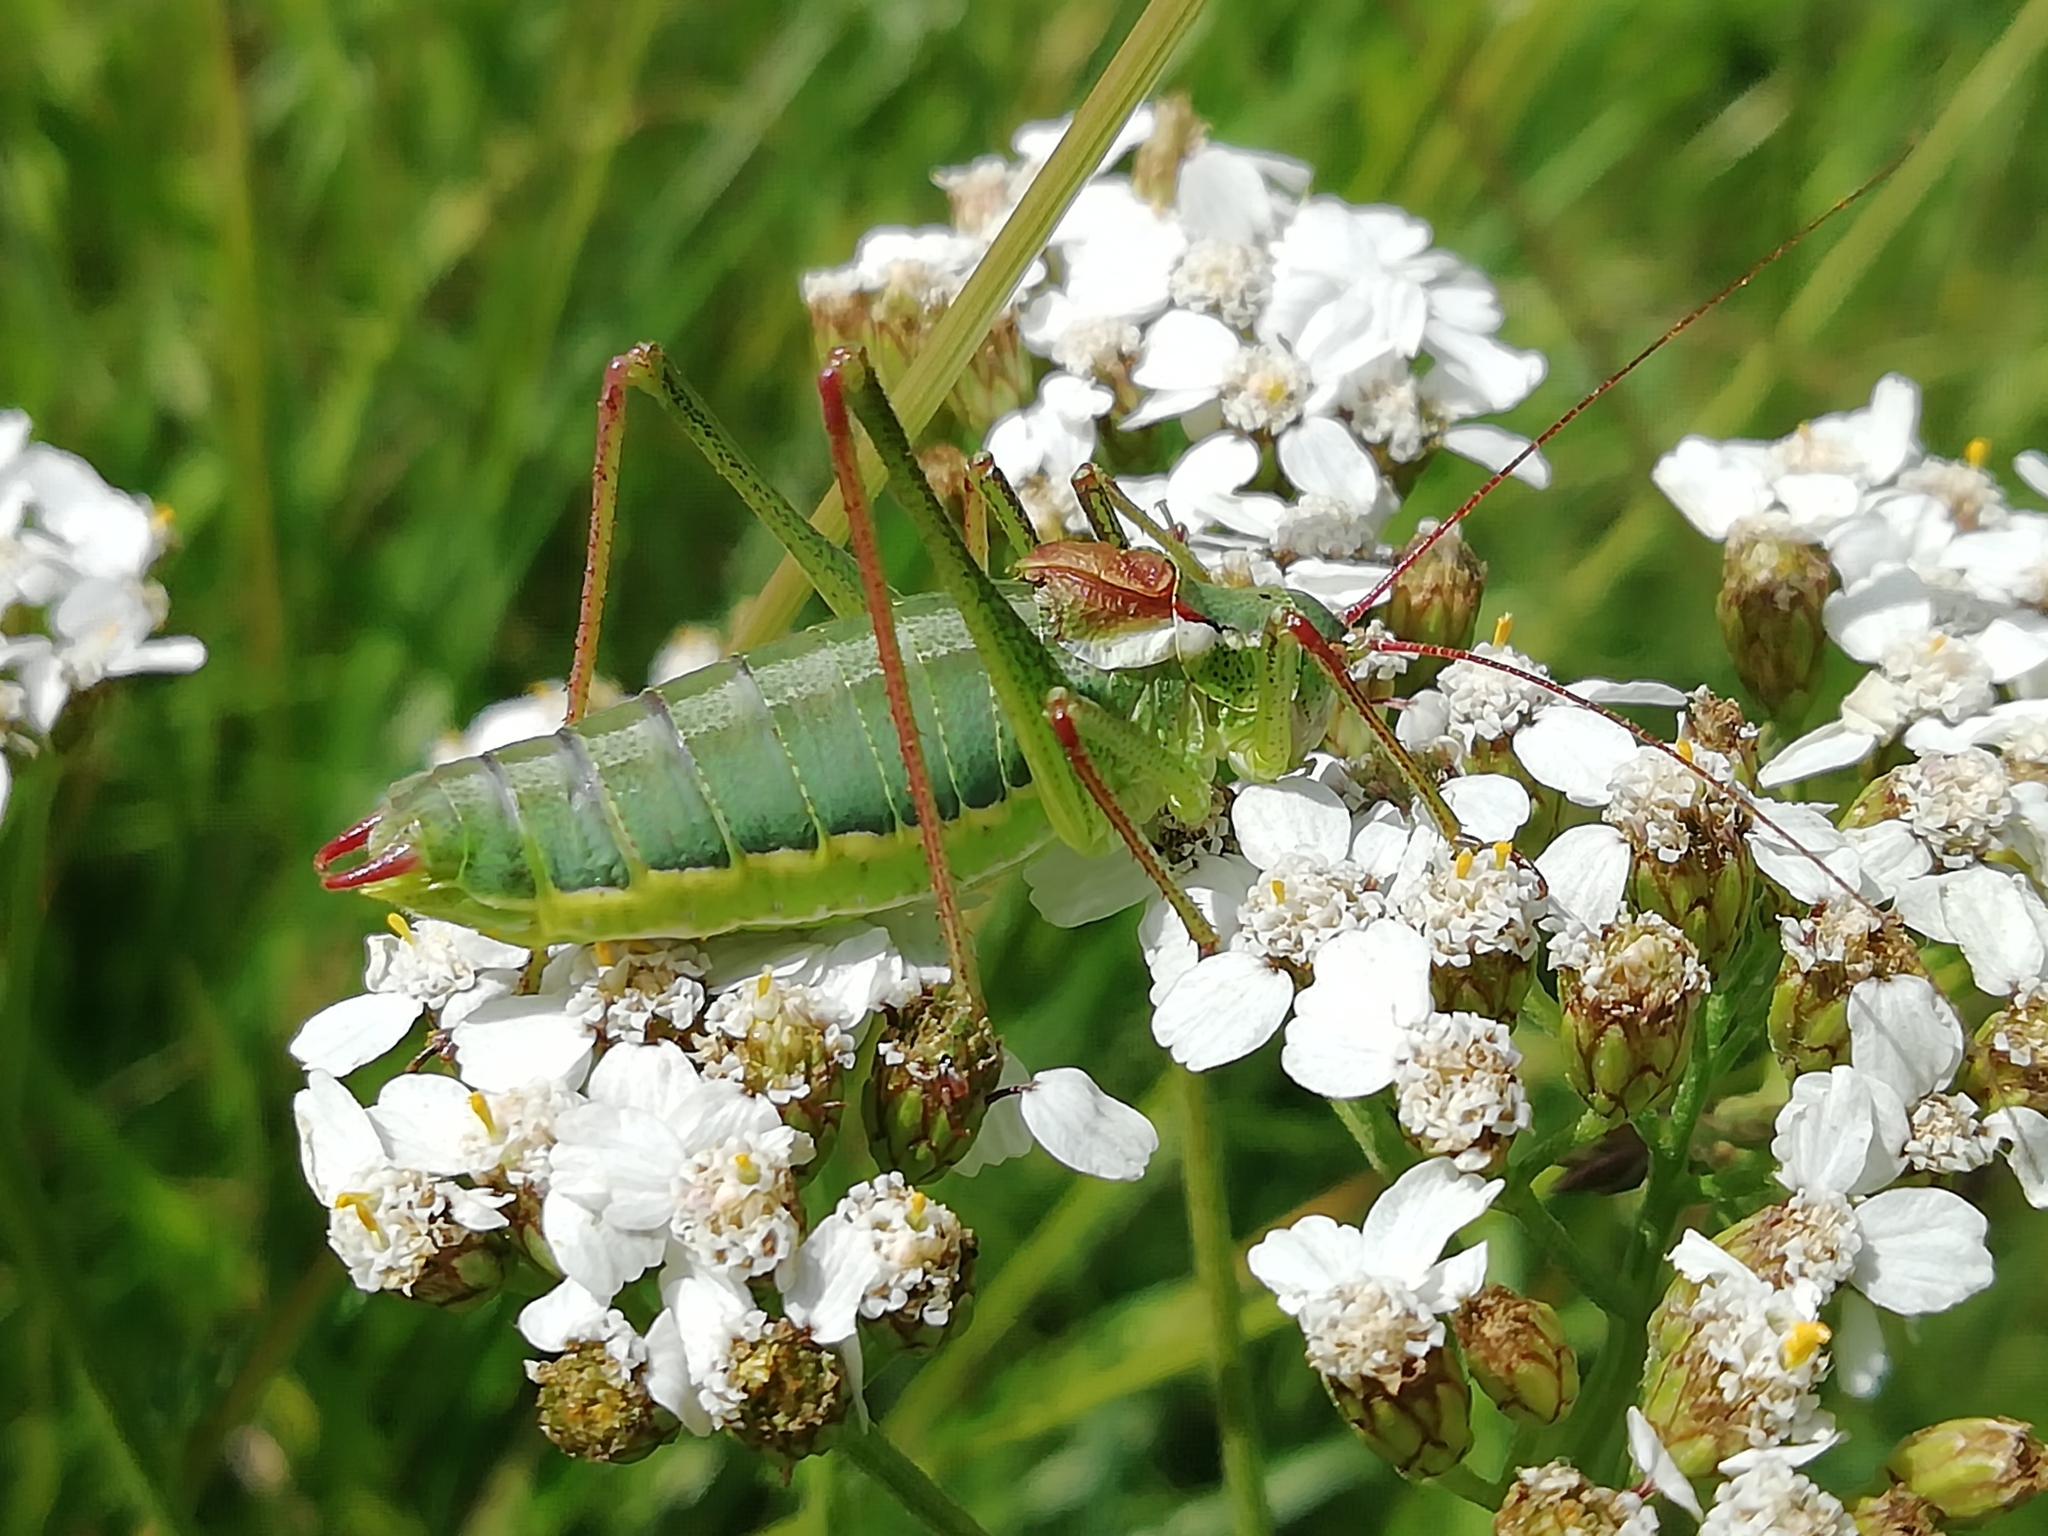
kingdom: Animalia
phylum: Arthropoda
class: Insecta
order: Orthoptera
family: Tettigoniidae
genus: Isophya
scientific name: Isophya altaica
